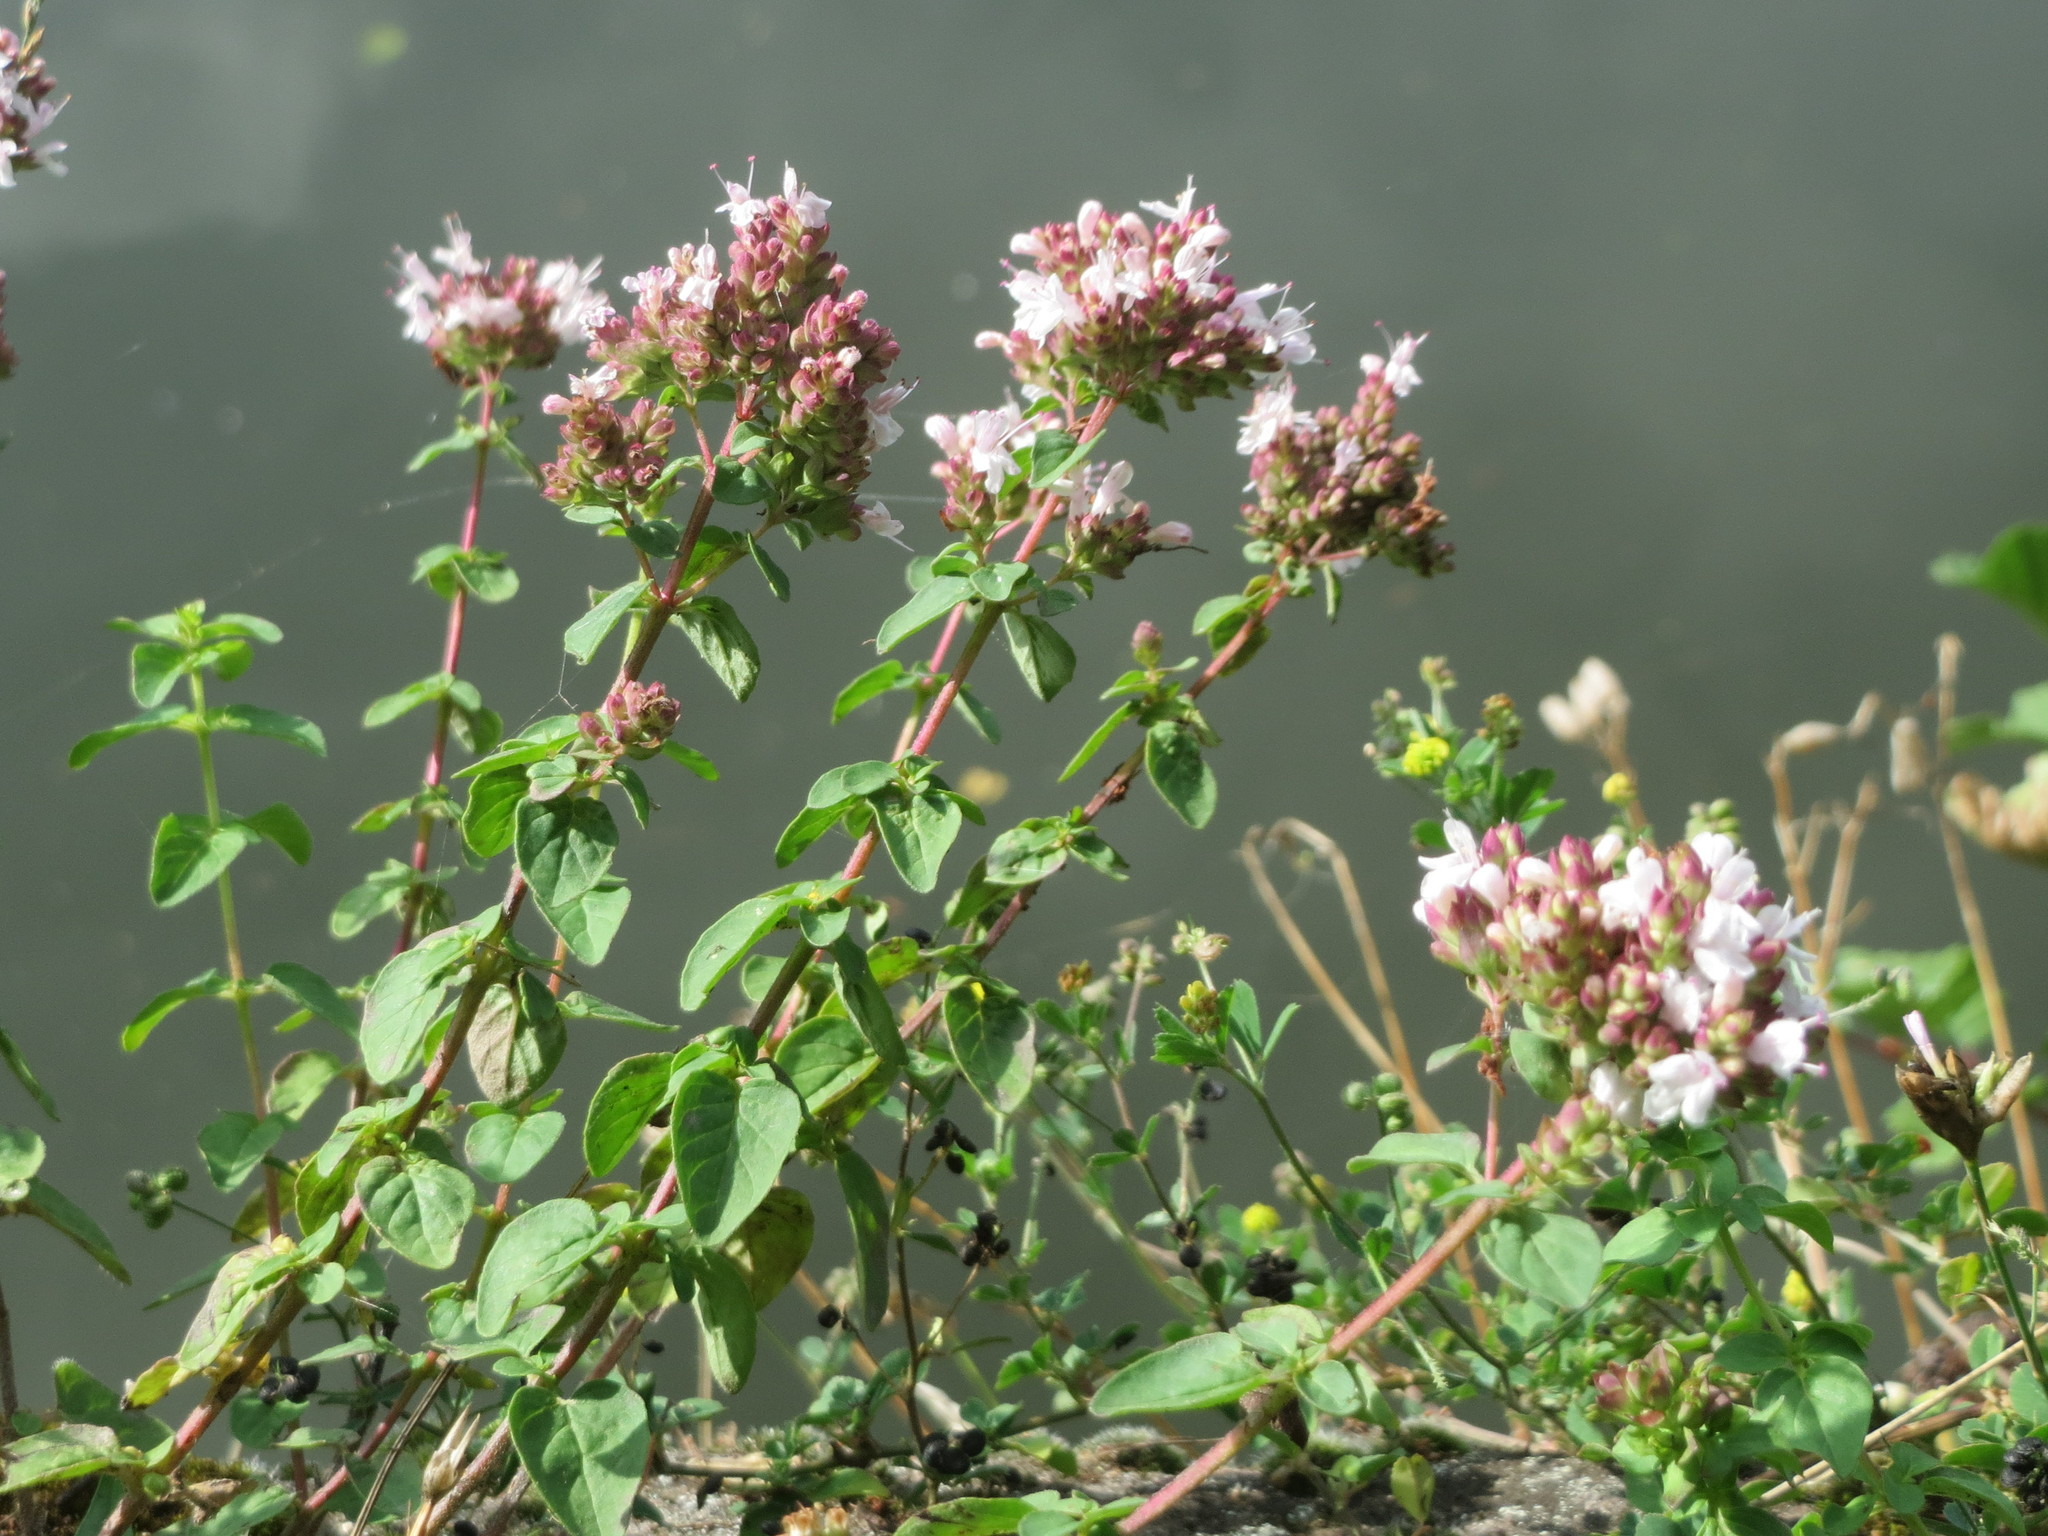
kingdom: Plantae
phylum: Tracheophyta
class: Magnoliopsida
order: Lamiales
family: Lamiaceae
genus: Origanum
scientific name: Origanum vulgare
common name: Wild marjoram
